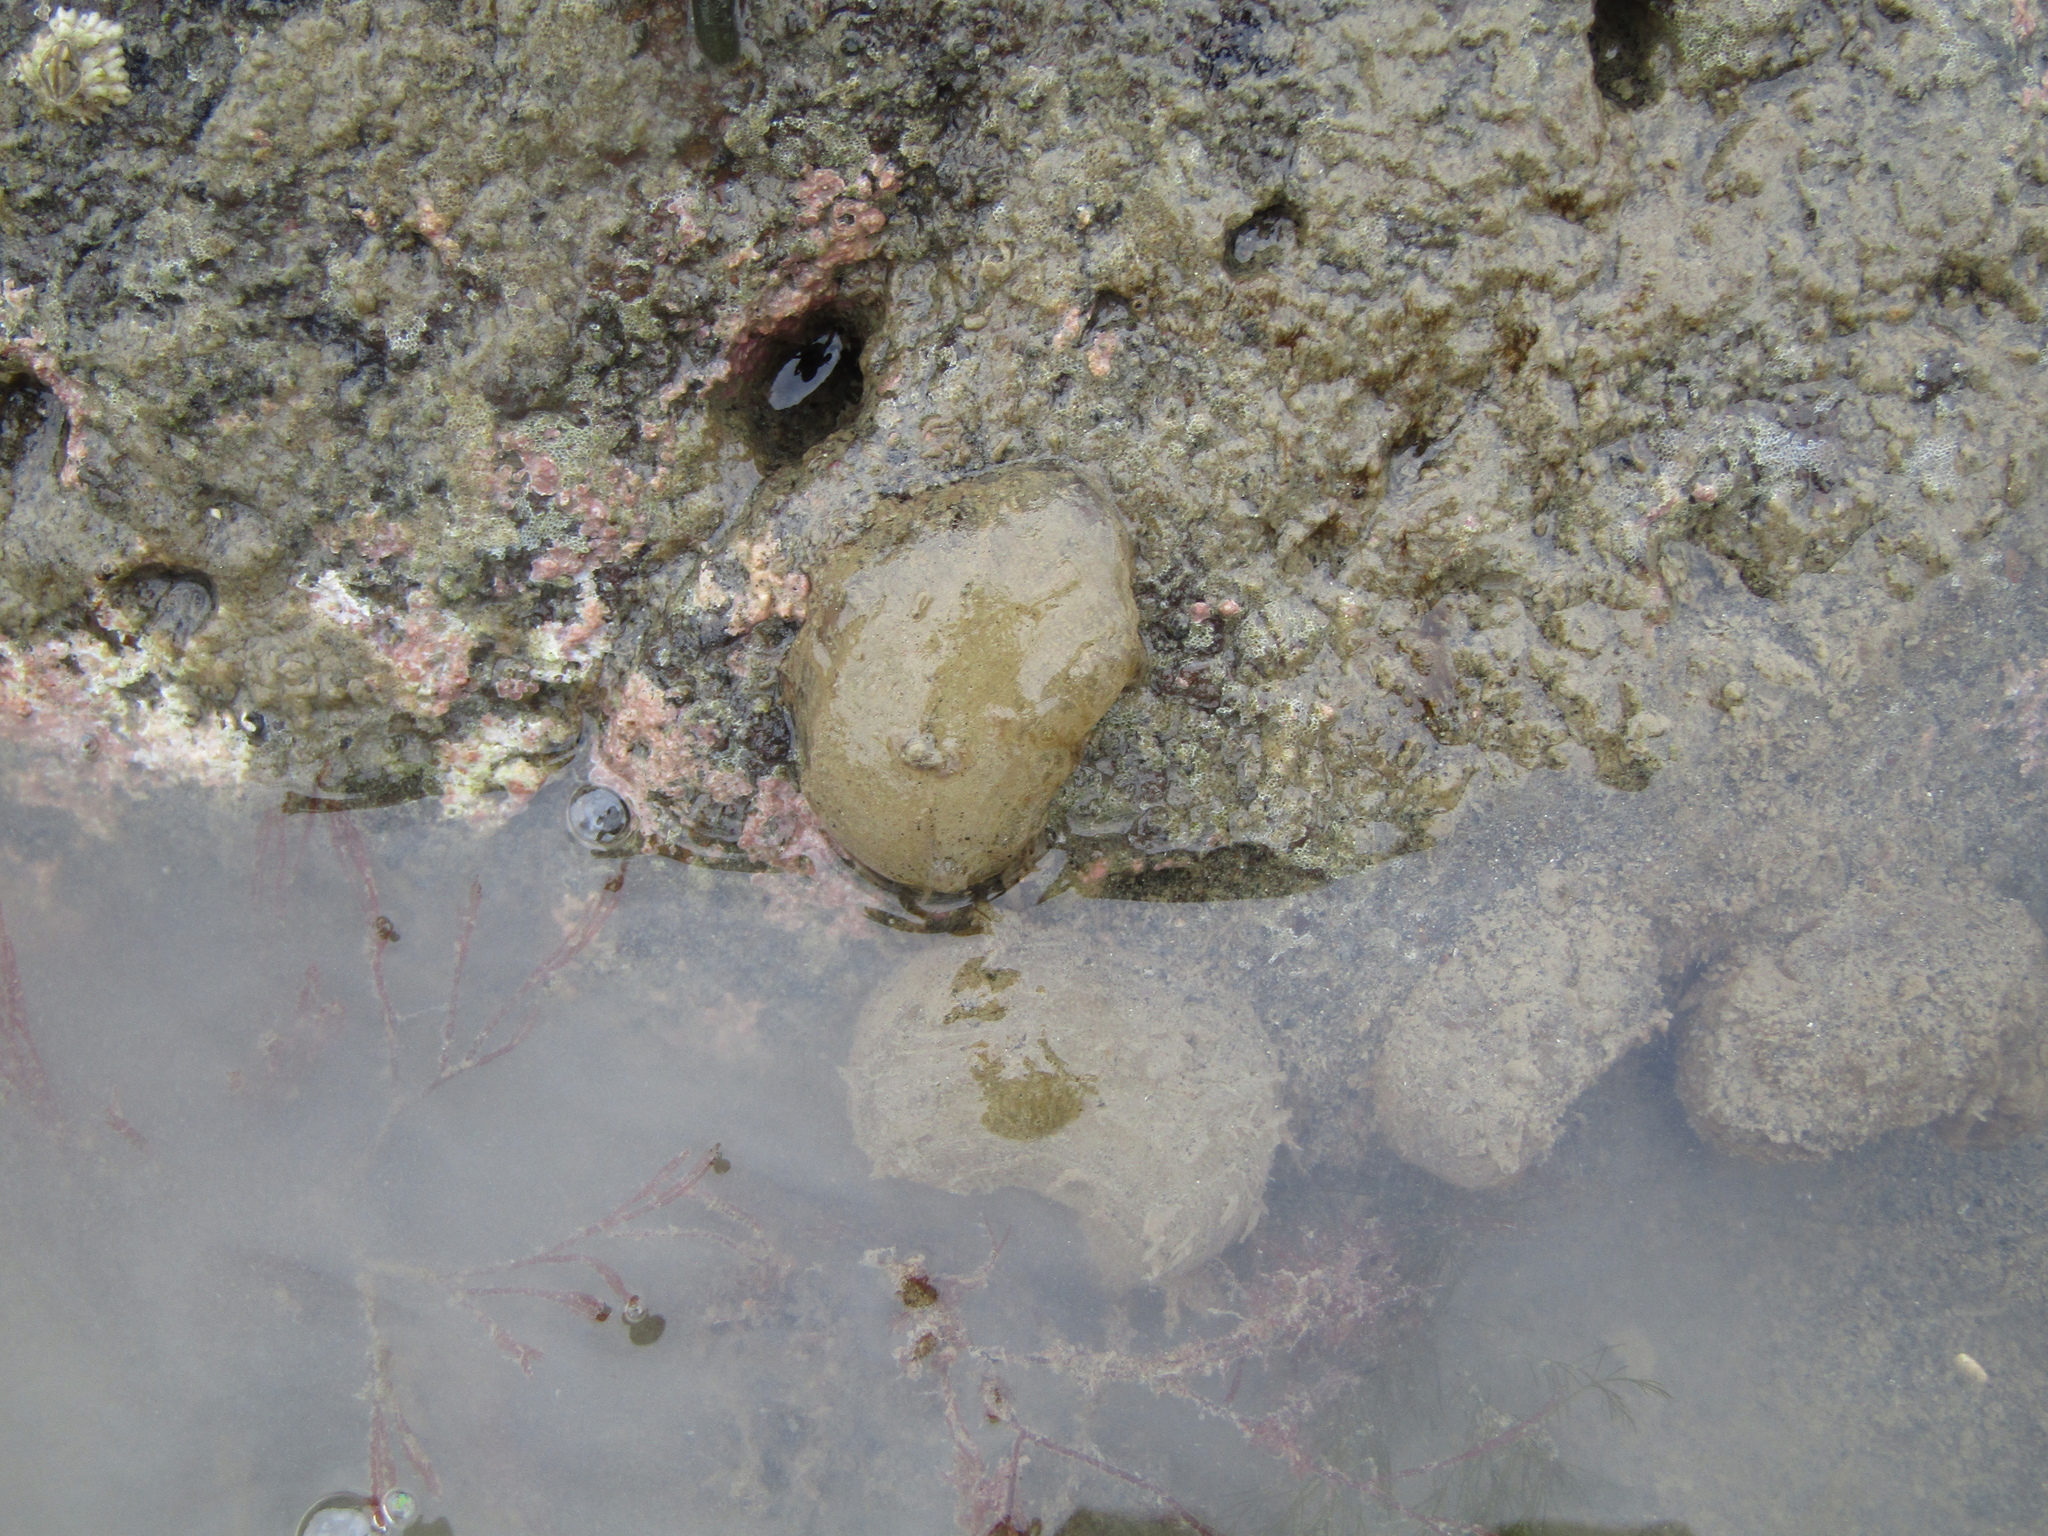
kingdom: Animalia
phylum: Mollusca
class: Gastropoda
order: Cephalaspidea
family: Haminoeidae
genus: Papawera
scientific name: Papawera zelandiae
